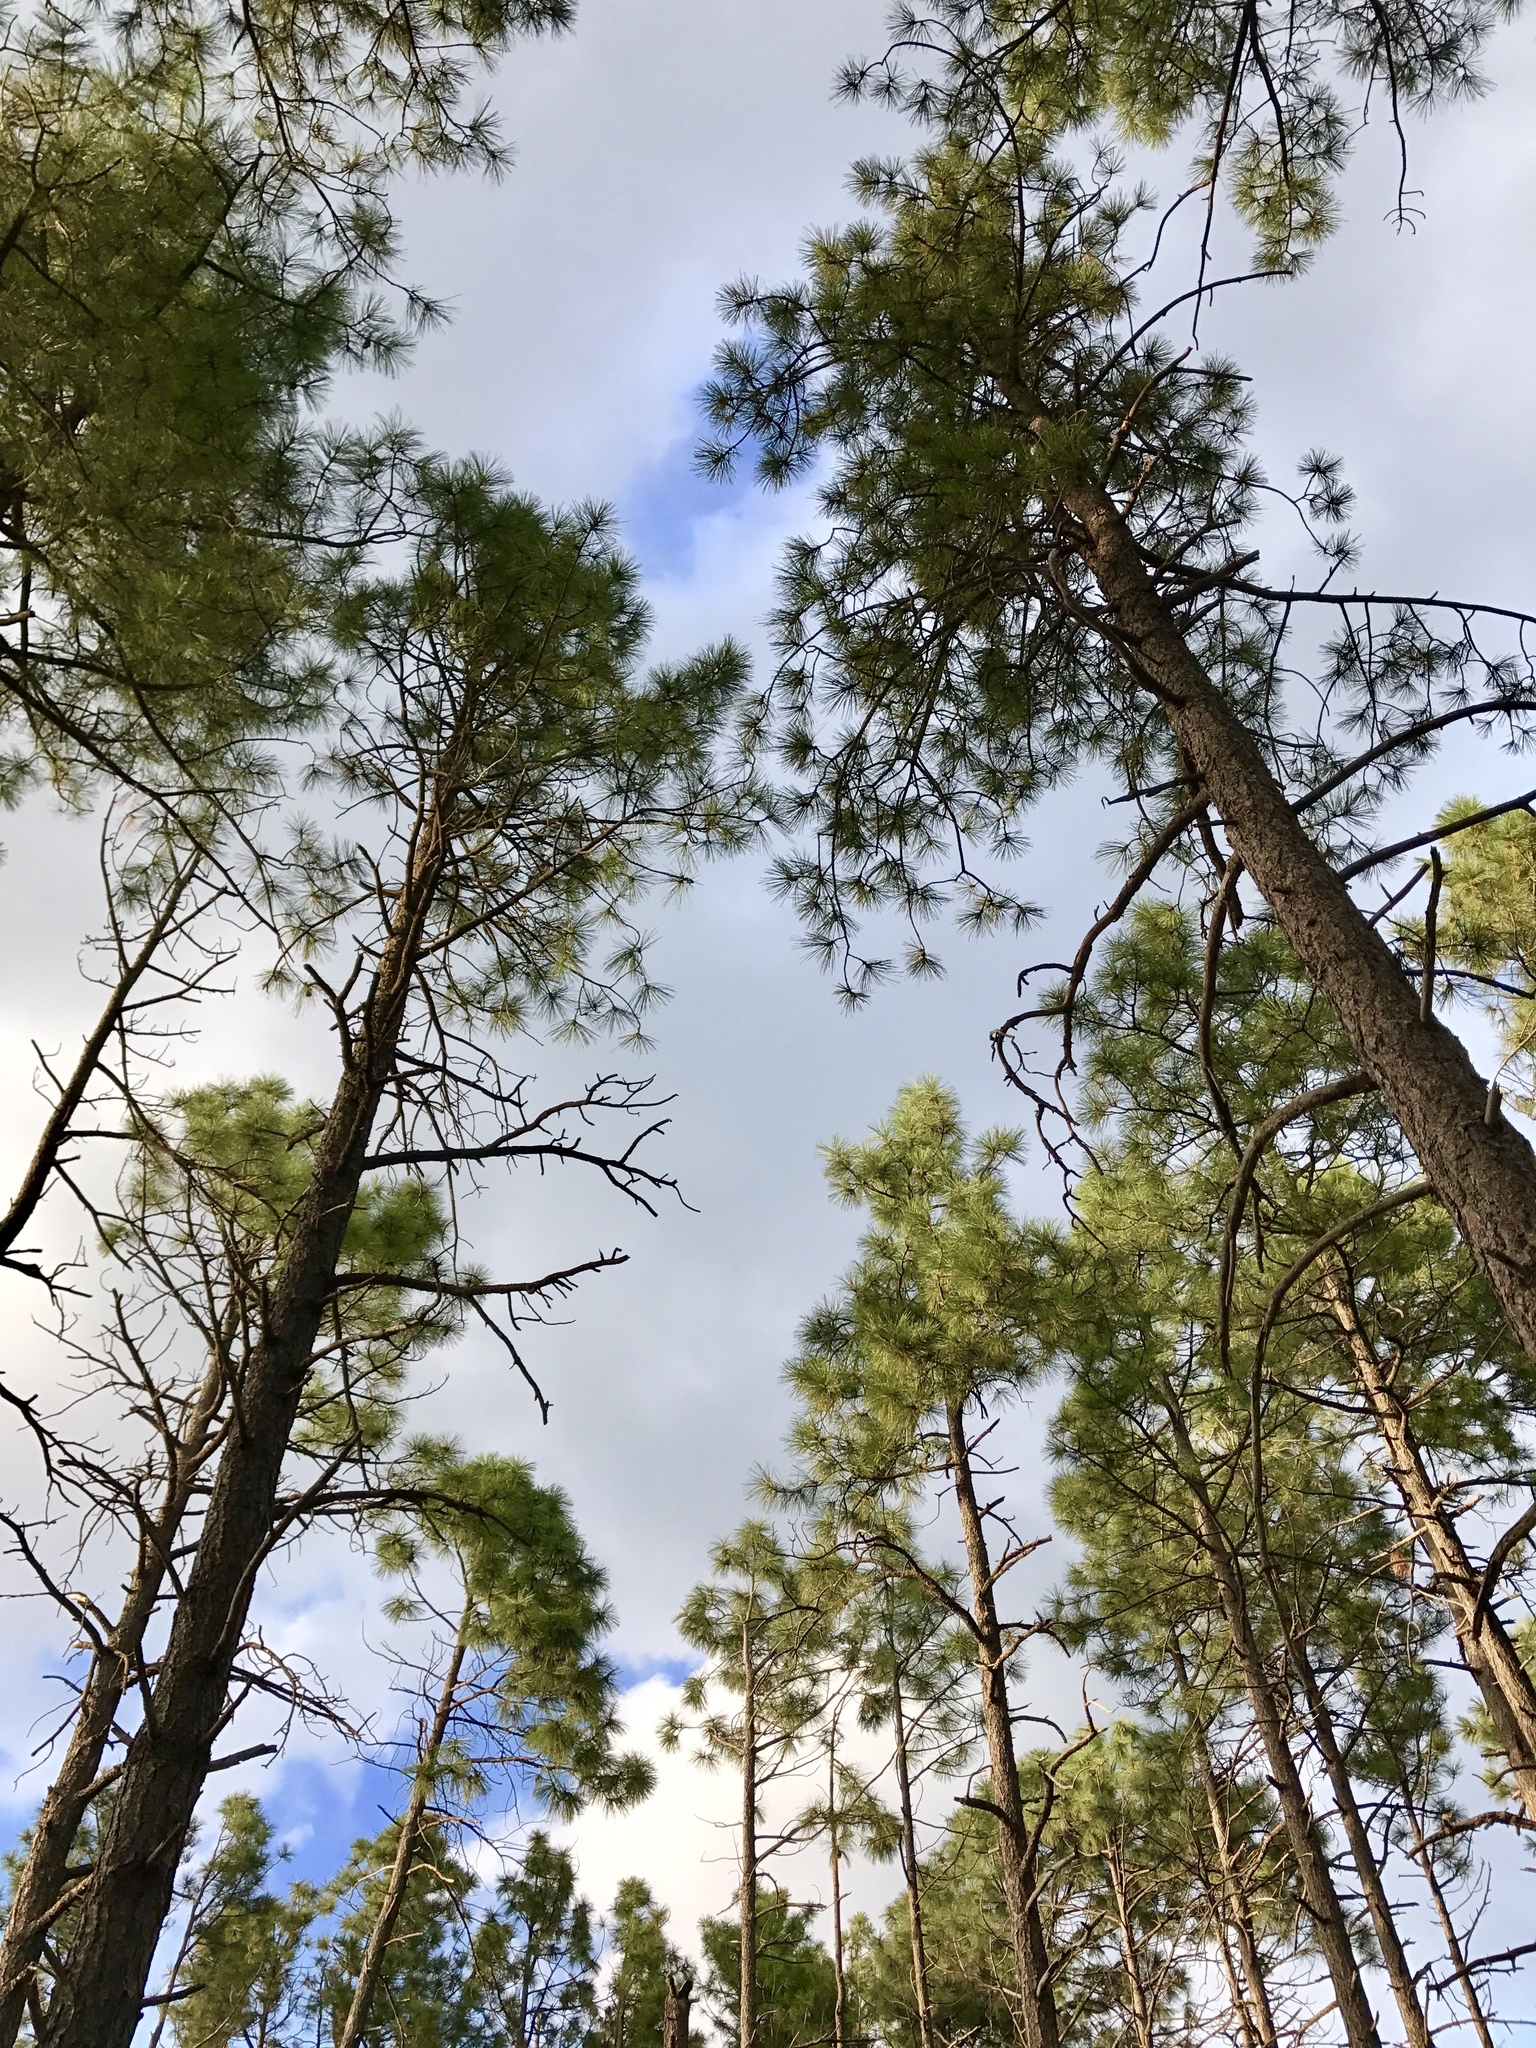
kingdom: Plantae
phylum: Tracheophyta
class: Pinopsida
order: Pinales
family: Pinaceae
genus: Pinus
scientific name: Pinus ponderosa
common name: Western yellow-pine
